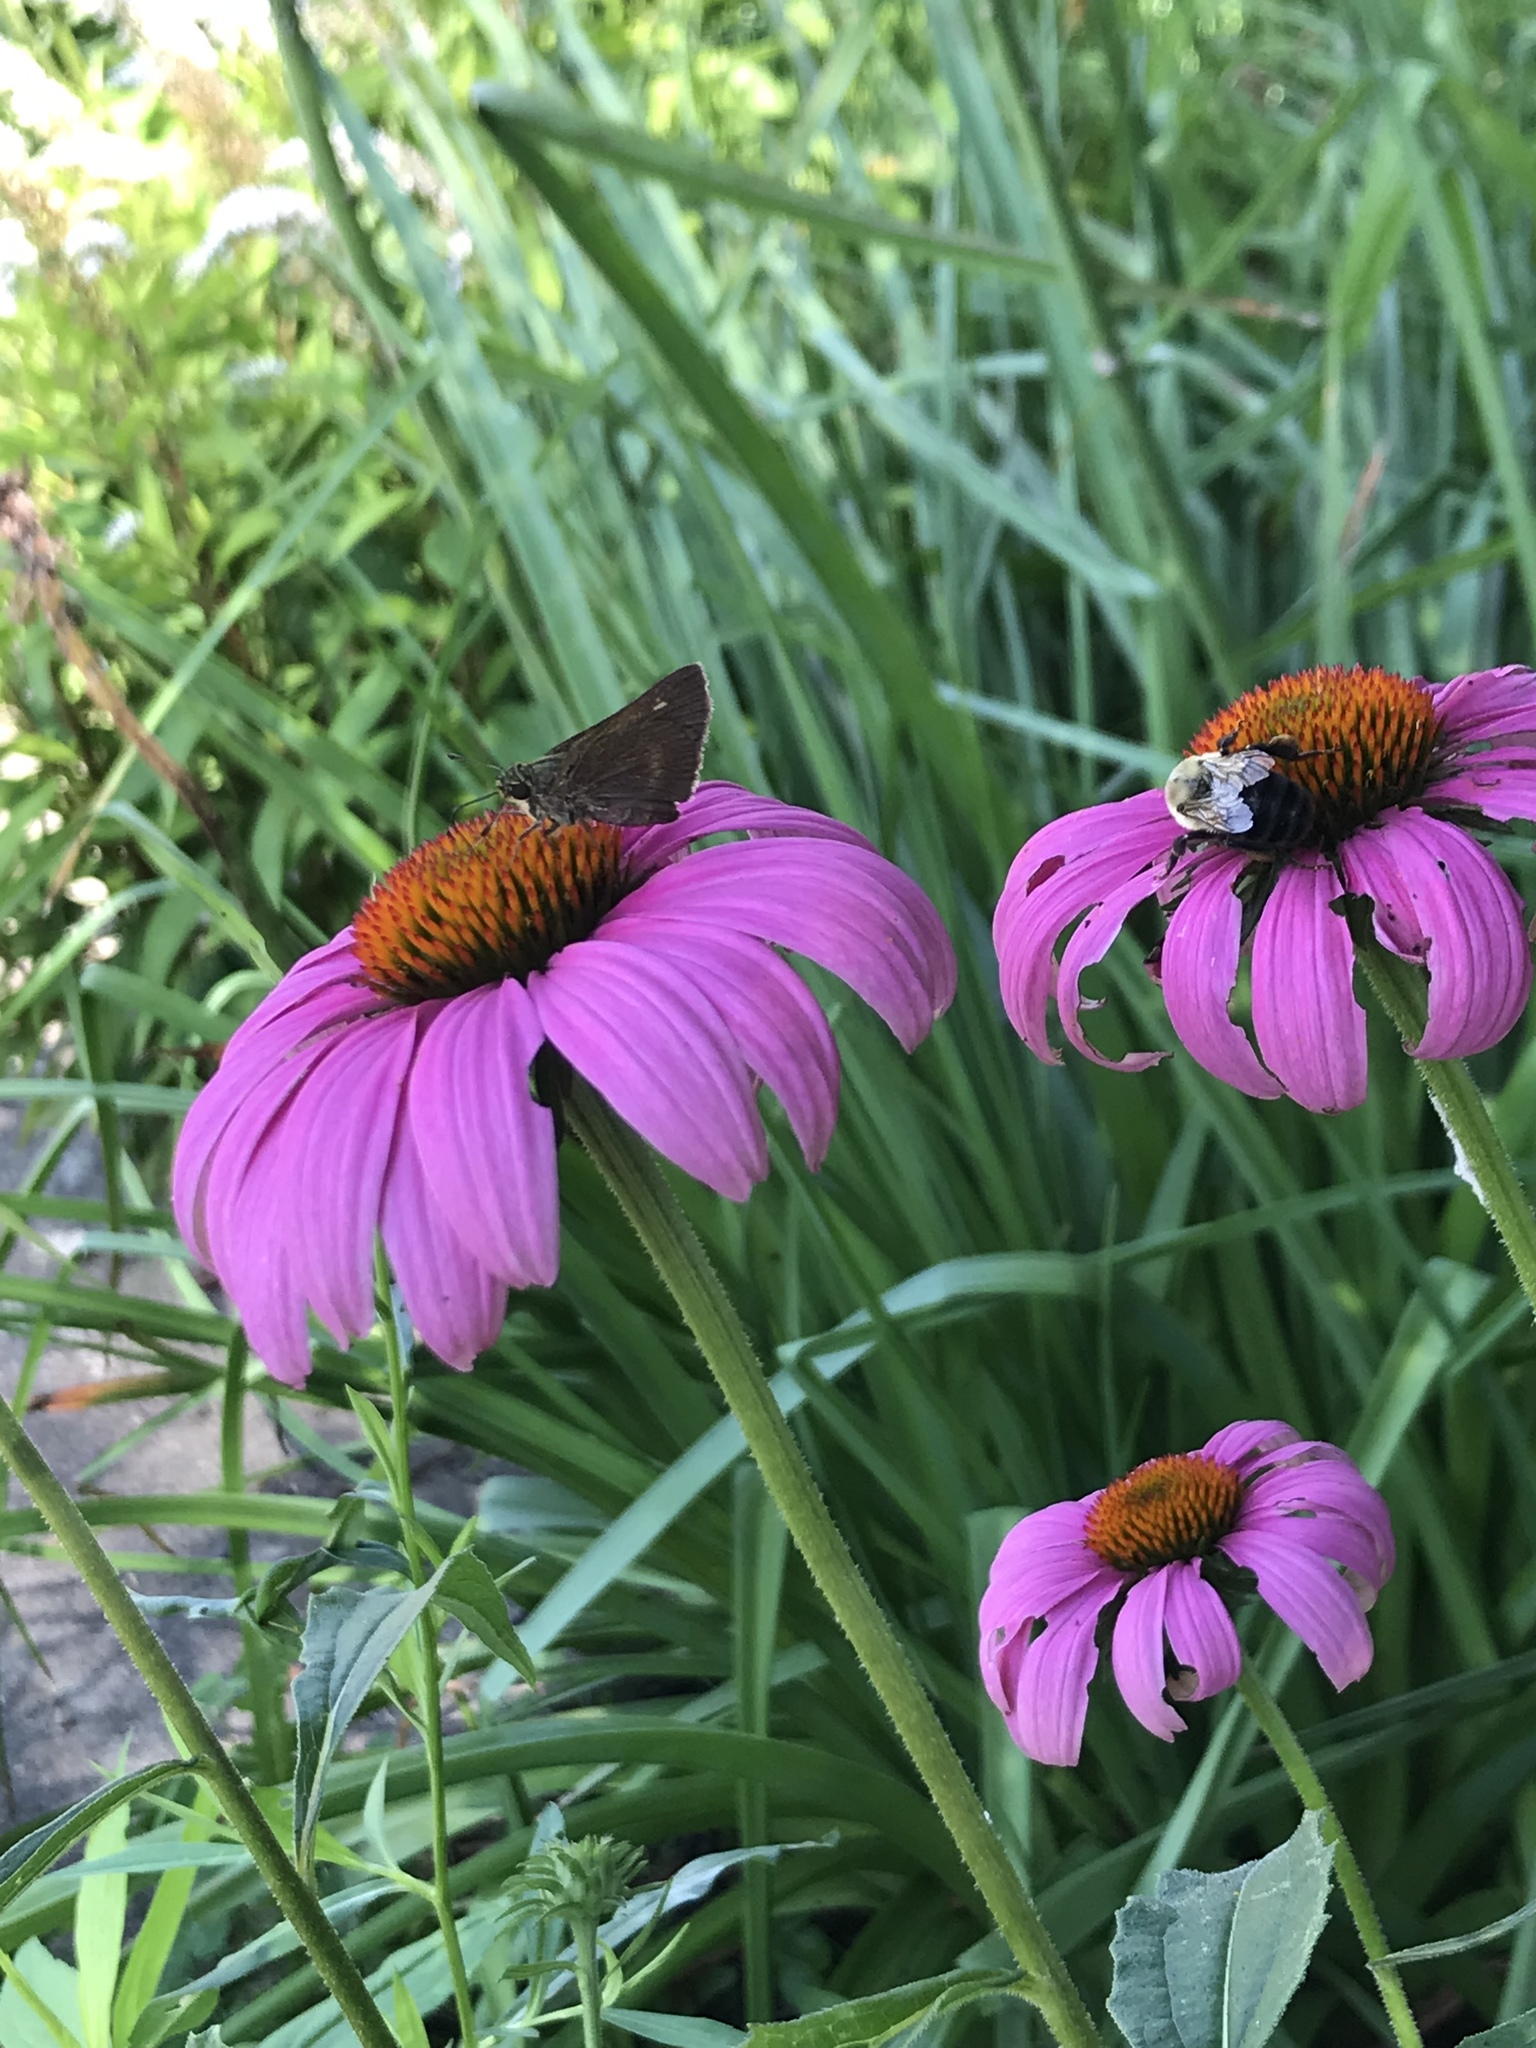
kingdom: Animalia
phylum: Arthropoda
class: Insecta
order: Lepidoptera
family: Hesperiidae
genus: Vernia
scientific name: Vernia verna
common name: Little glassywing
